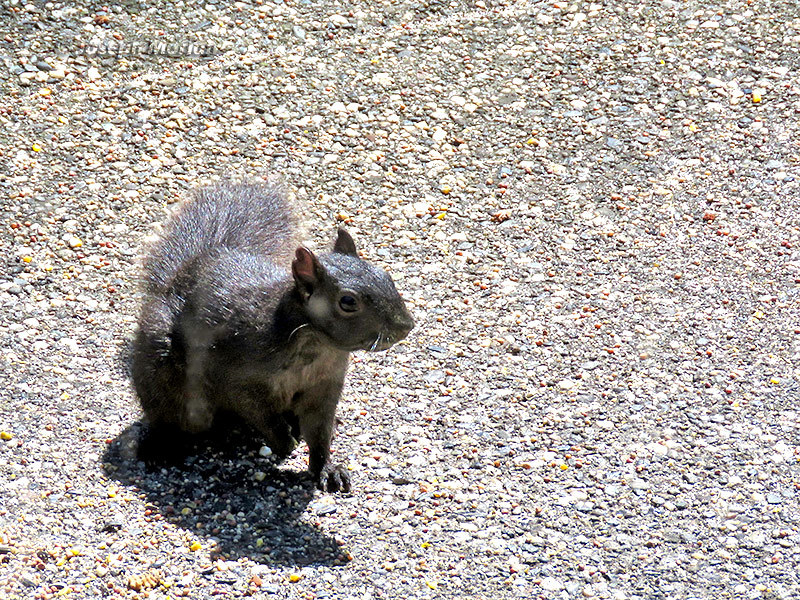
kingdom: Animalia
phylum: Chordata
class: Mammalia
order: Rodentia
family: Sciuridae
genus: Sciurus
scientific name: Sciurus carolinensis
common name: Eastern gray squirrel
